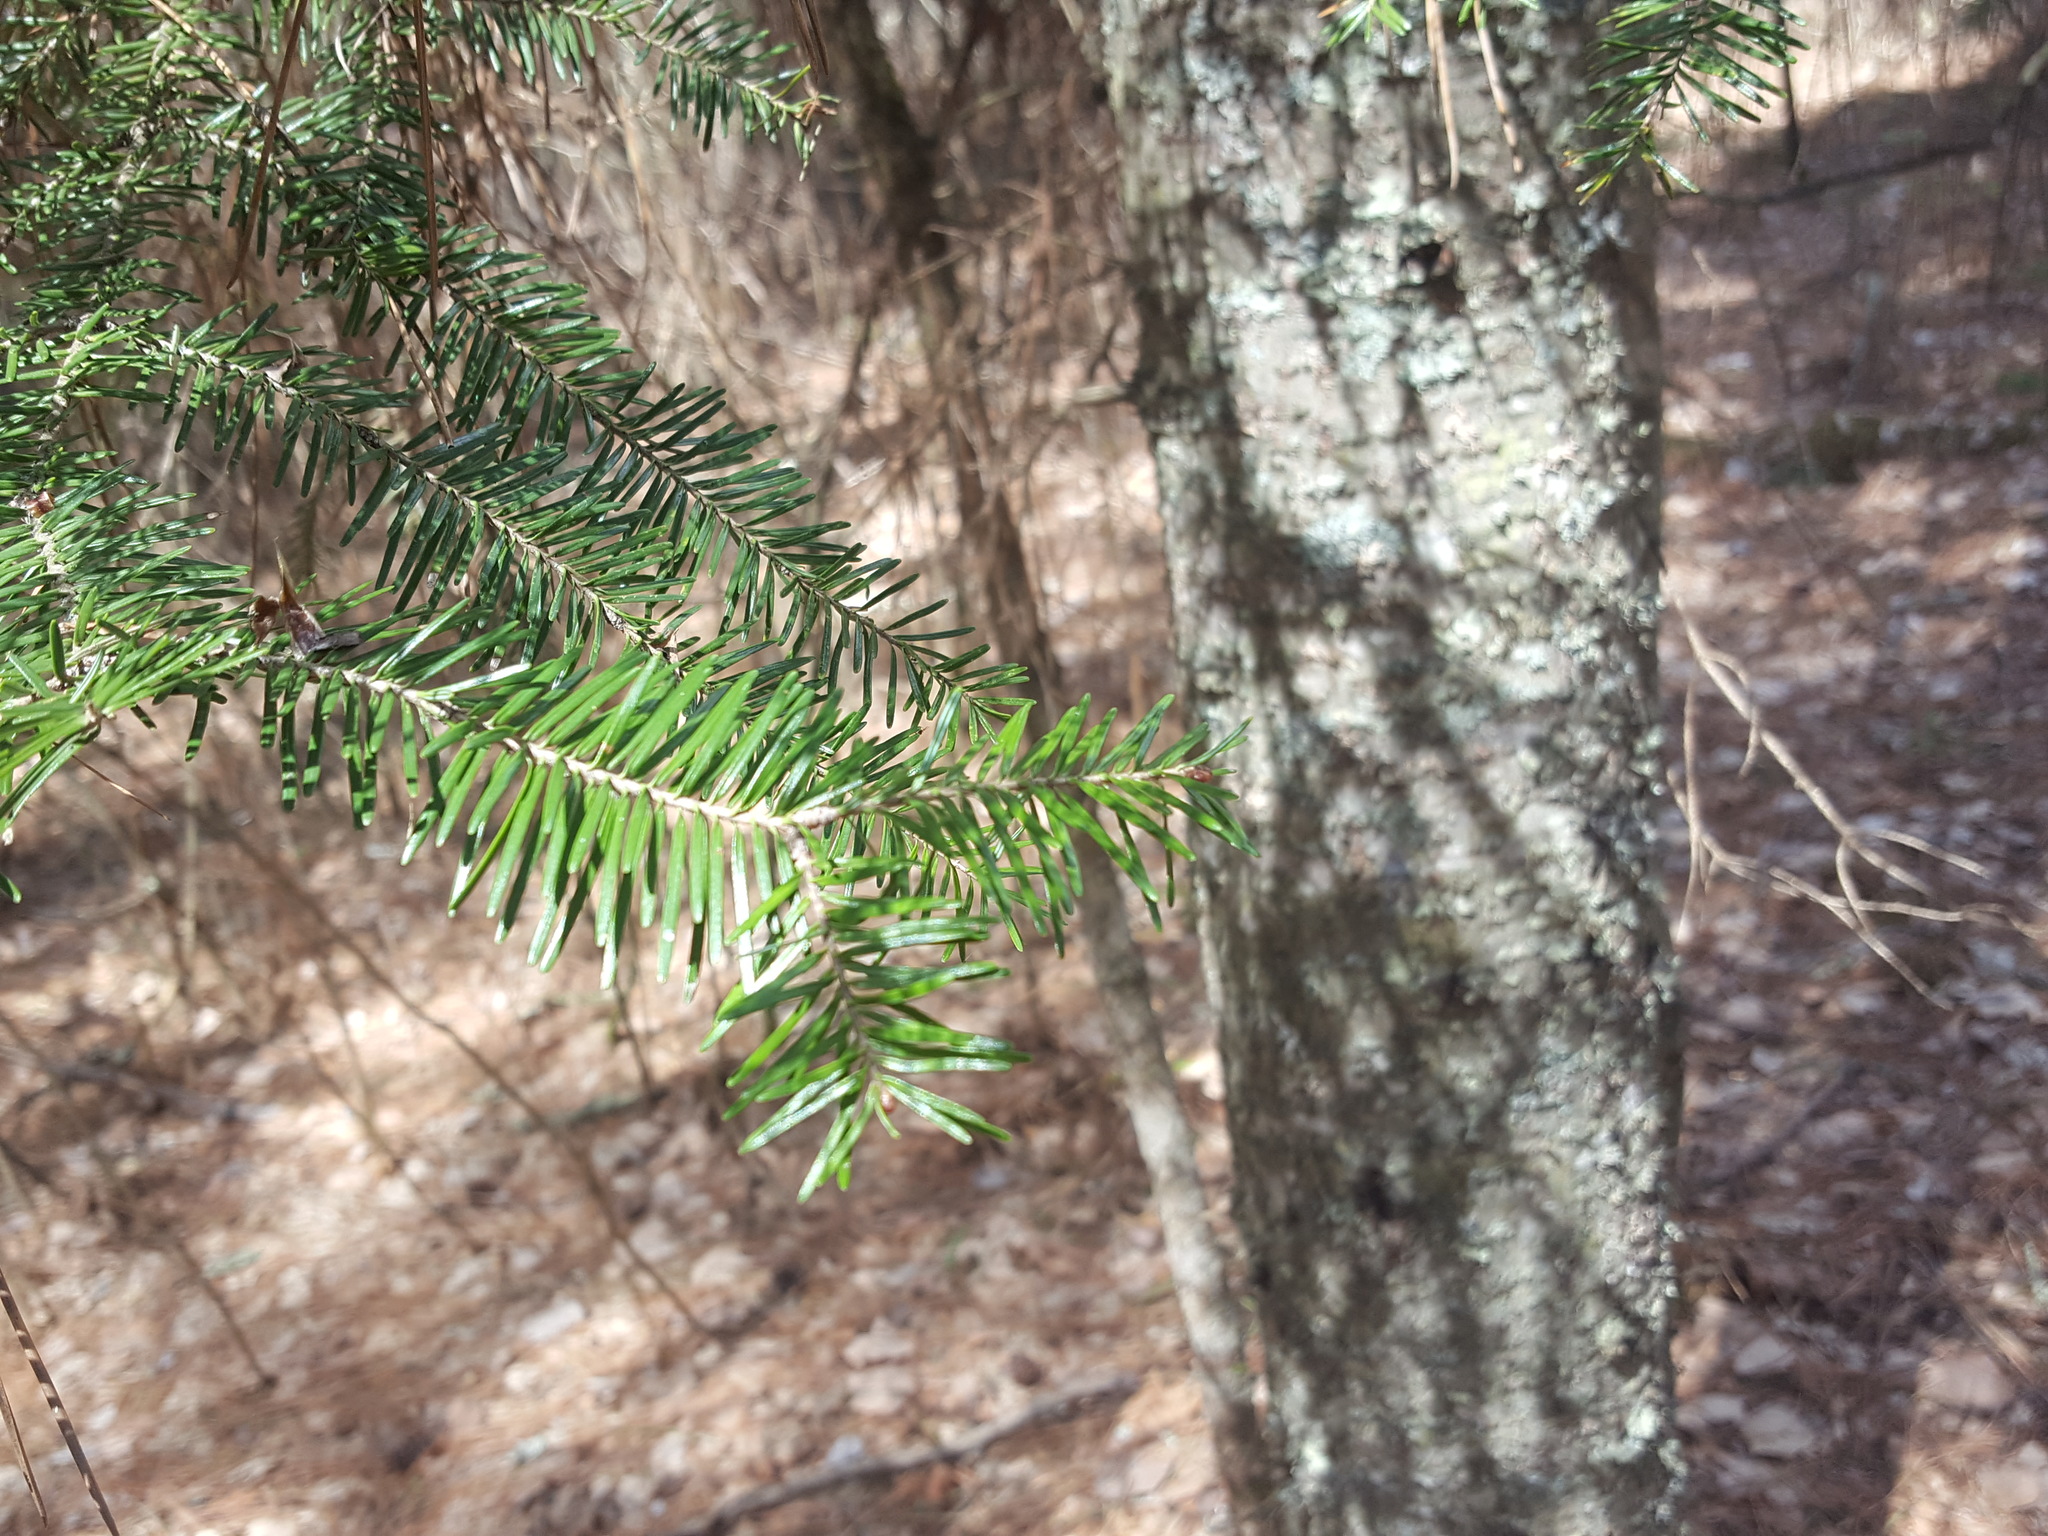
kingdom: Plantae
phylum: Tracheophyta
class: Pinopsida
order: Pinales
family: Pinaceae
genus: Abies
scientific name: Abies balsamea
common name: Balsam fir
